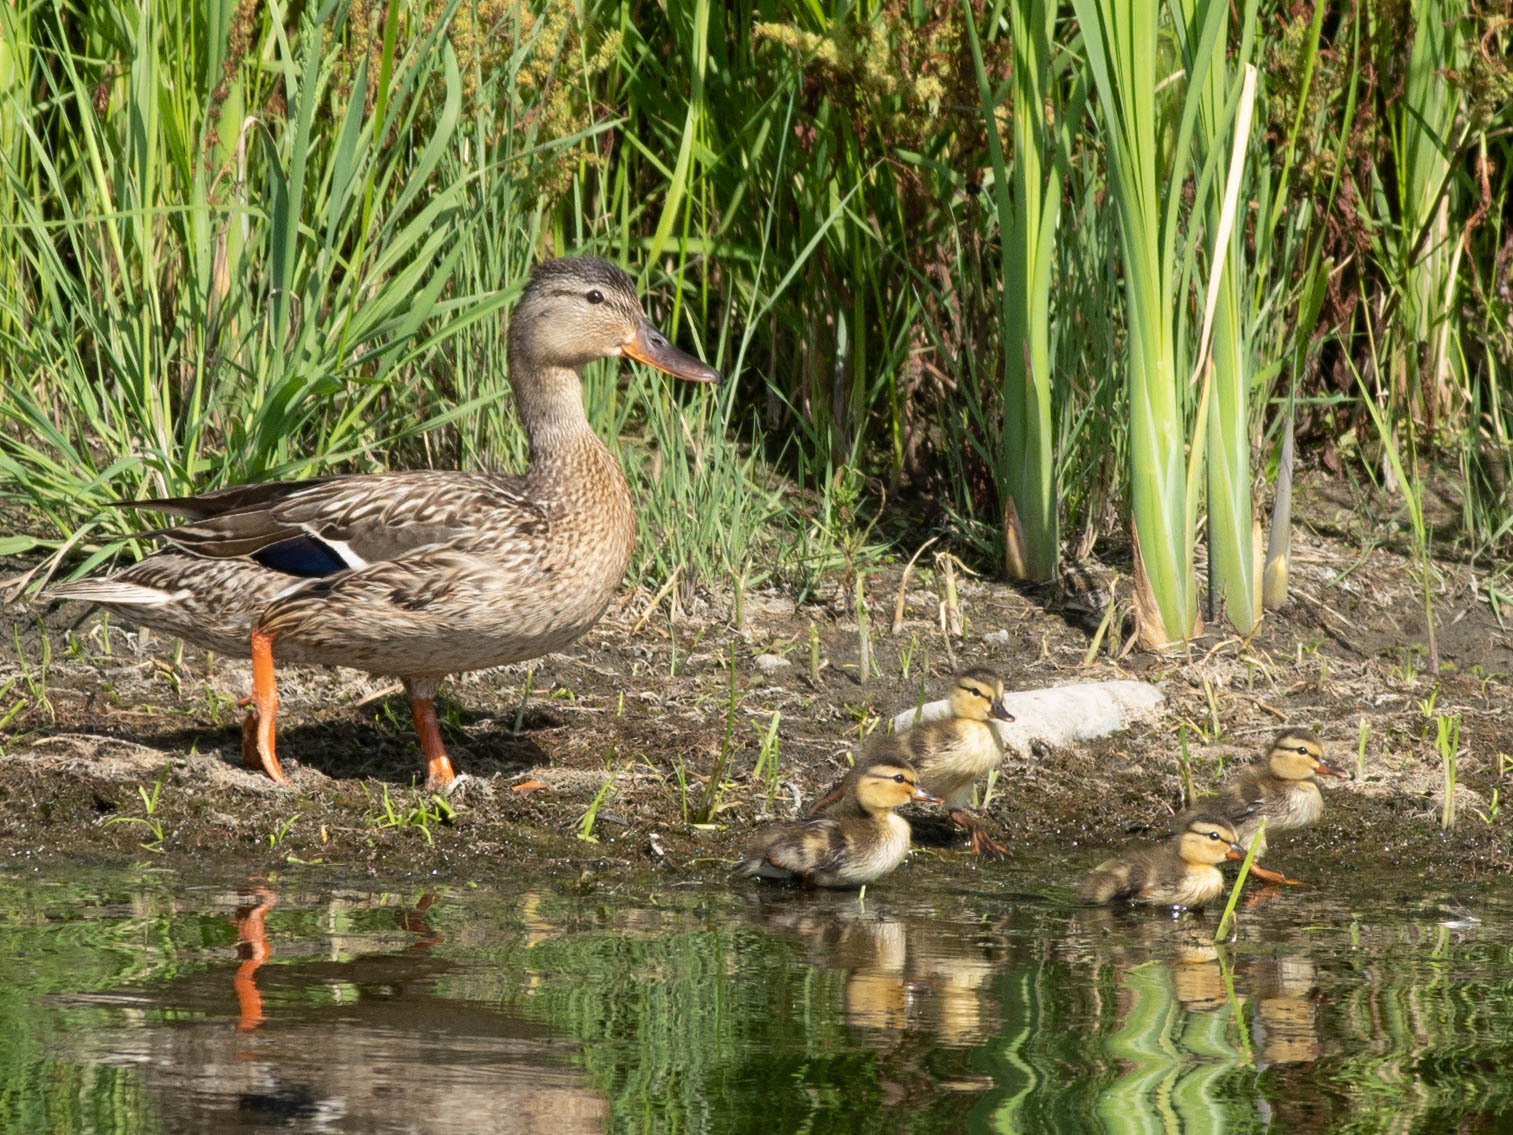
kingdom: Animalia
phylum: Chordata
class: Aves
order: Anseriformes
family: Anatidae
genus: Anas
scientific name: Anas platyrhynchos
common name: Mallard
